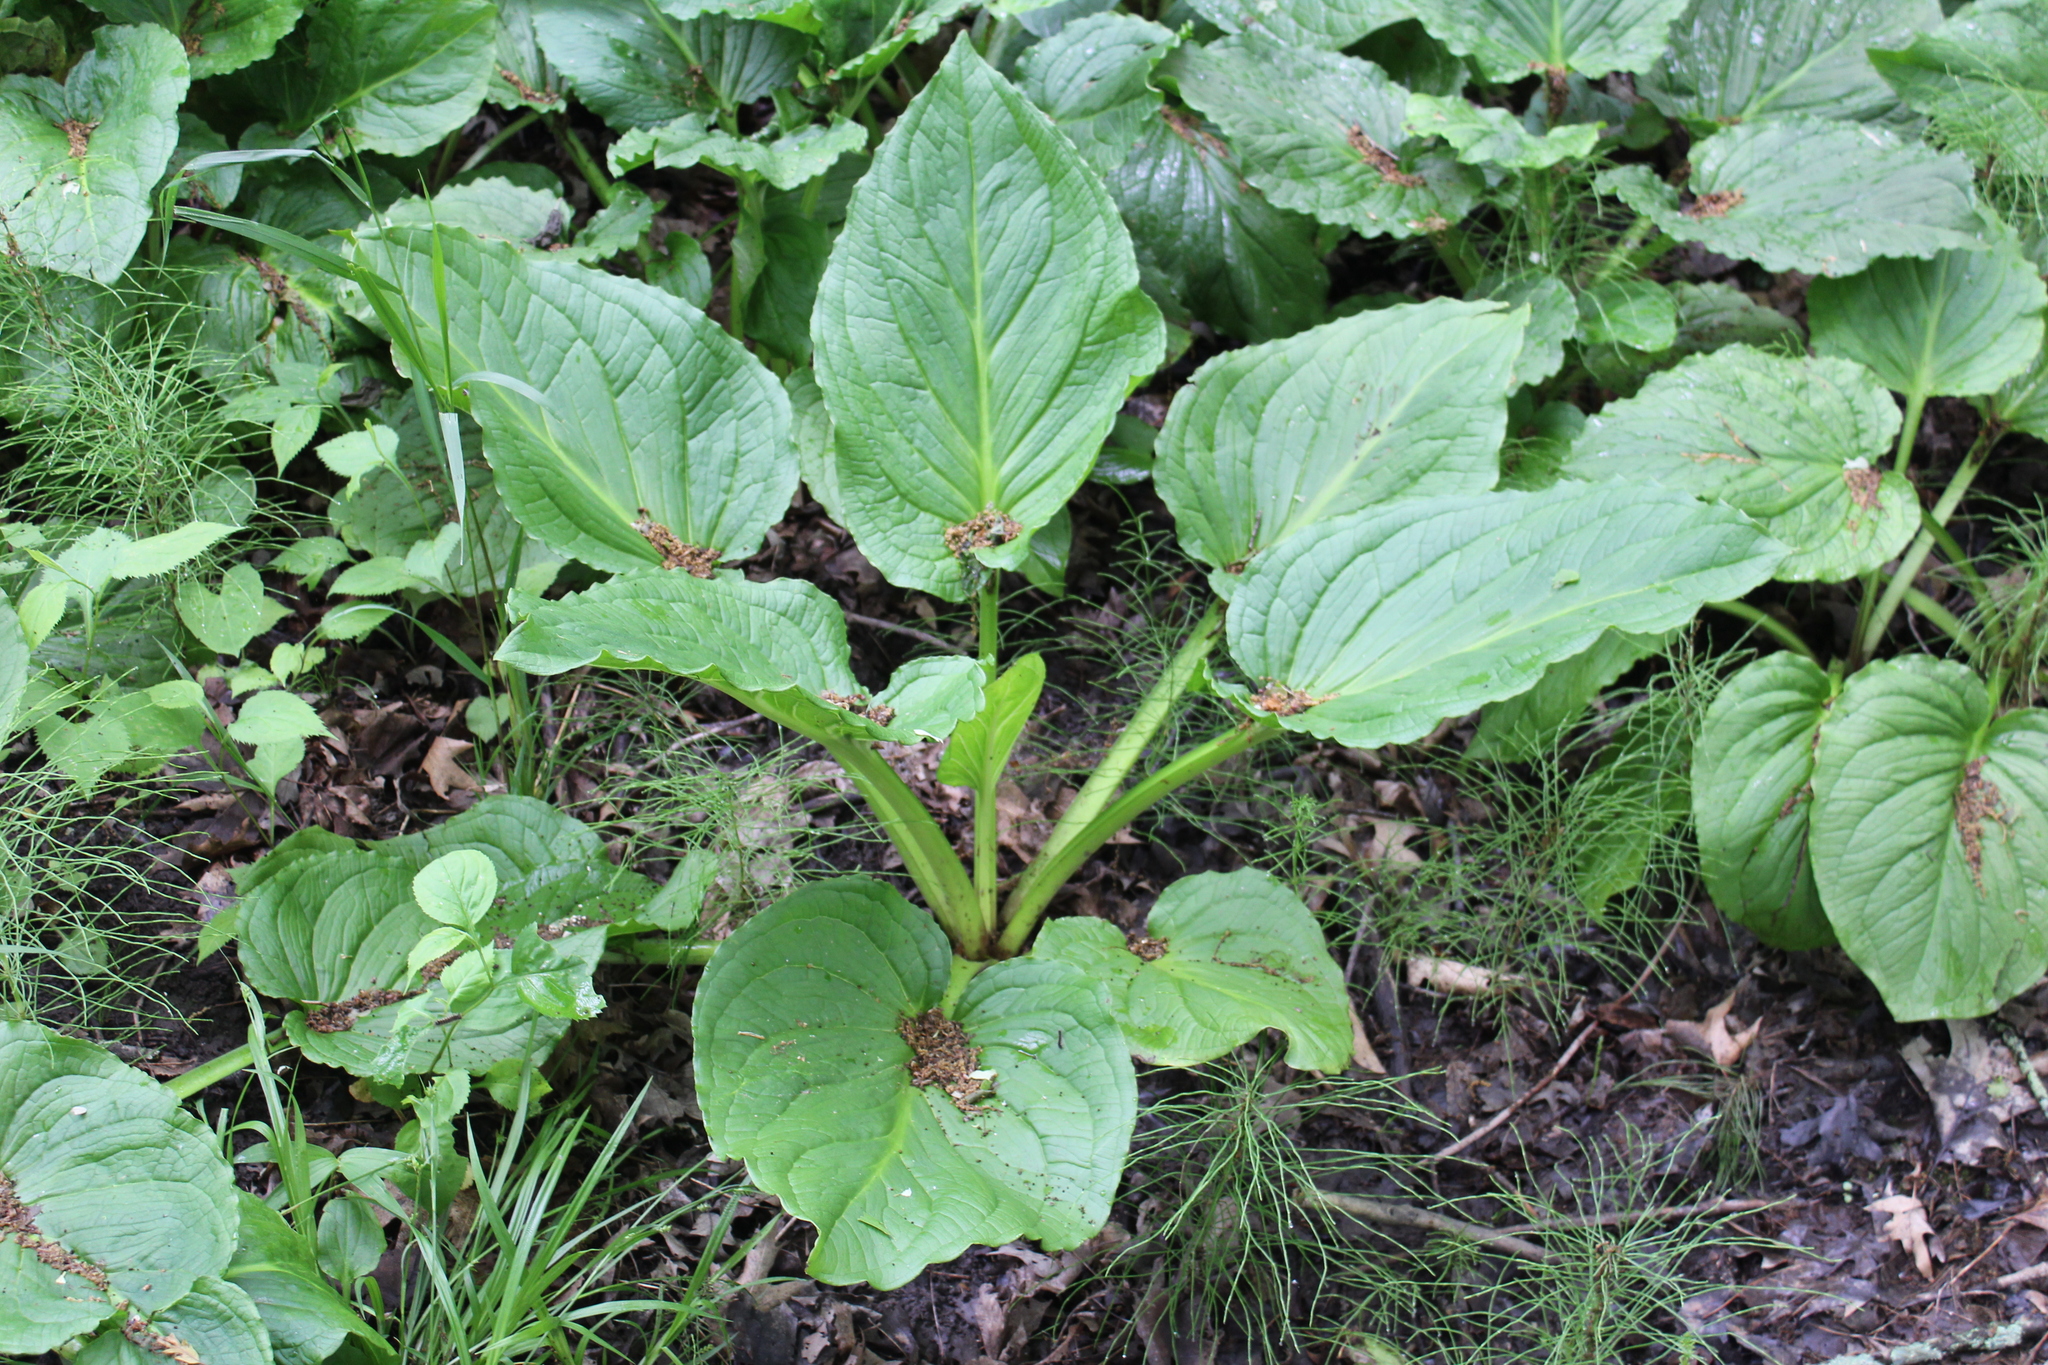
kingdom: Plantae
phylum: Tracheophyta
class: Liliopsida
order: Alismatales
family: Araceae
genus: Symplocarpus
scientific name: Symplocarpus foetidus
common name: Eastern skunk cabbage
